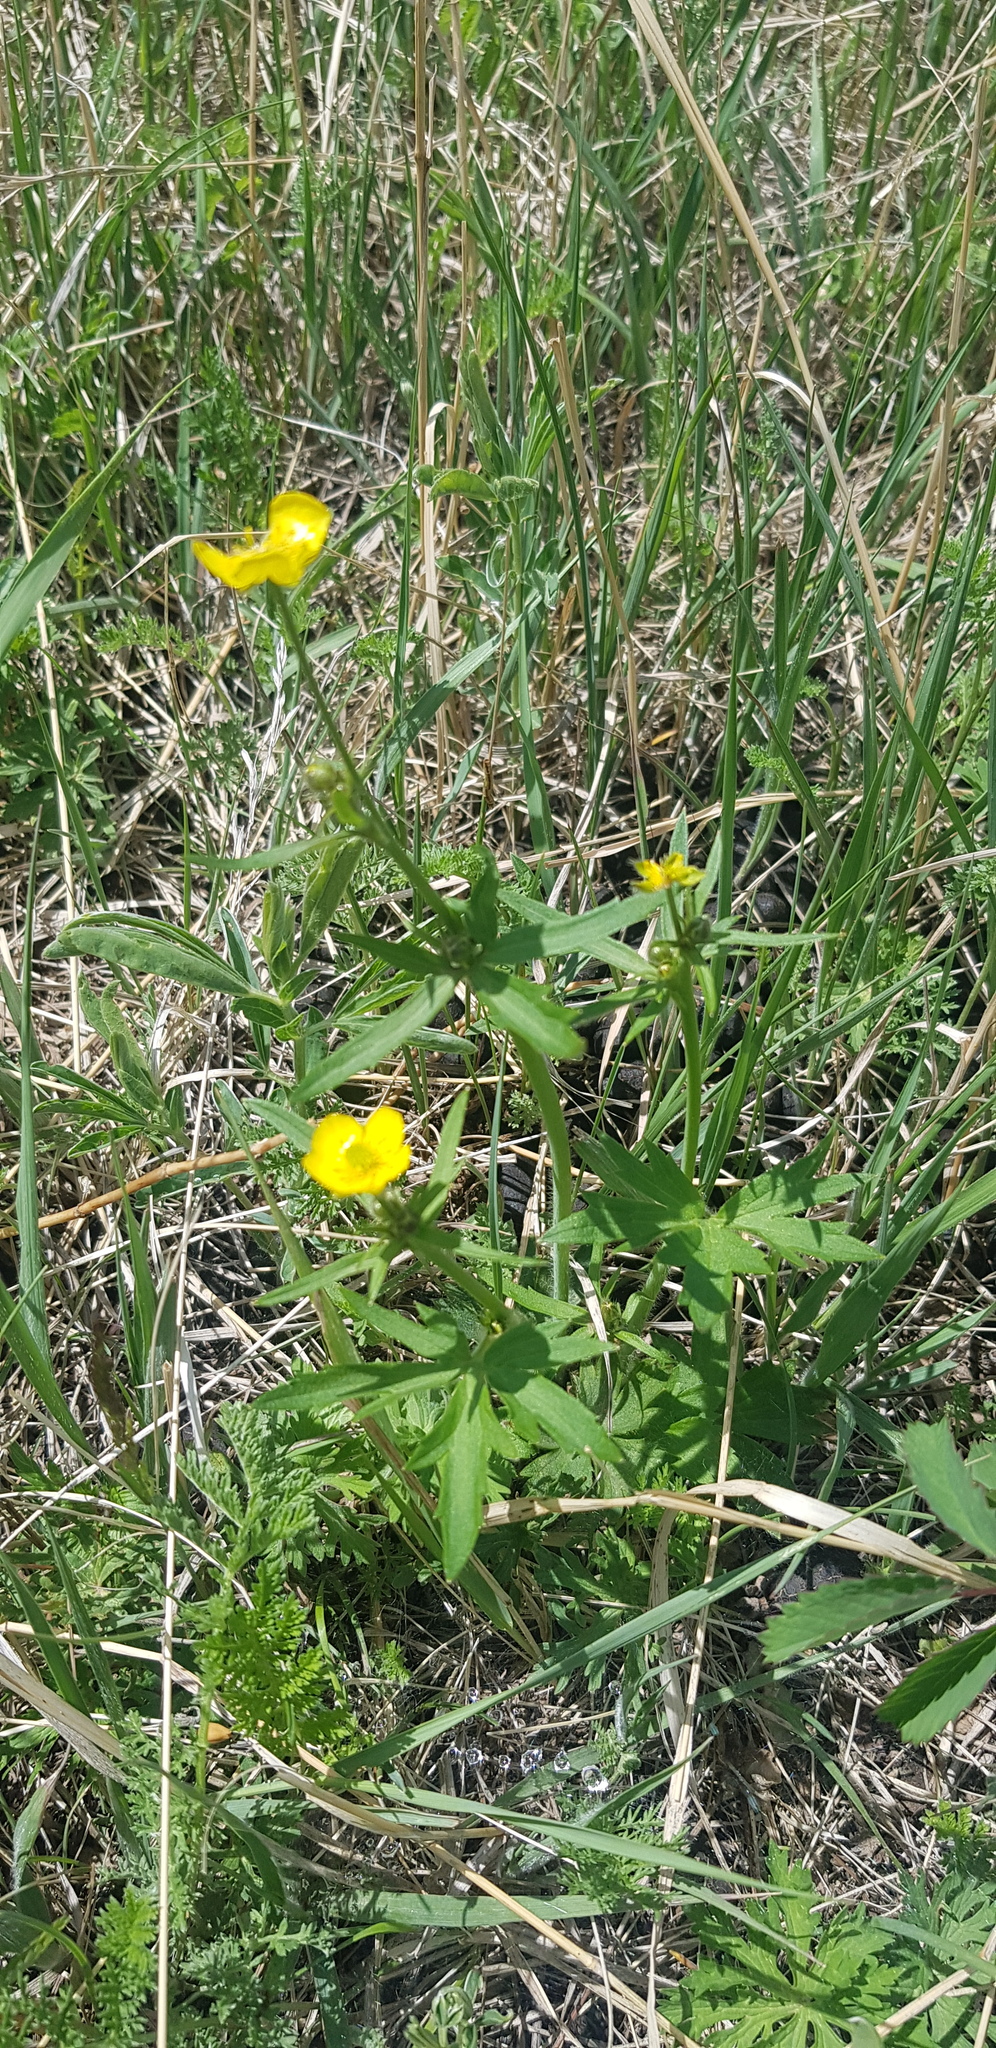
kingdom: Plantae
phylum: Tracheophyta
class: Magnoliopsida
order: Ranunculales
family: Ranunculaceae
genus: Ranunculus
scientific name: Ranunculus acris
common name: Meadow buttercup
